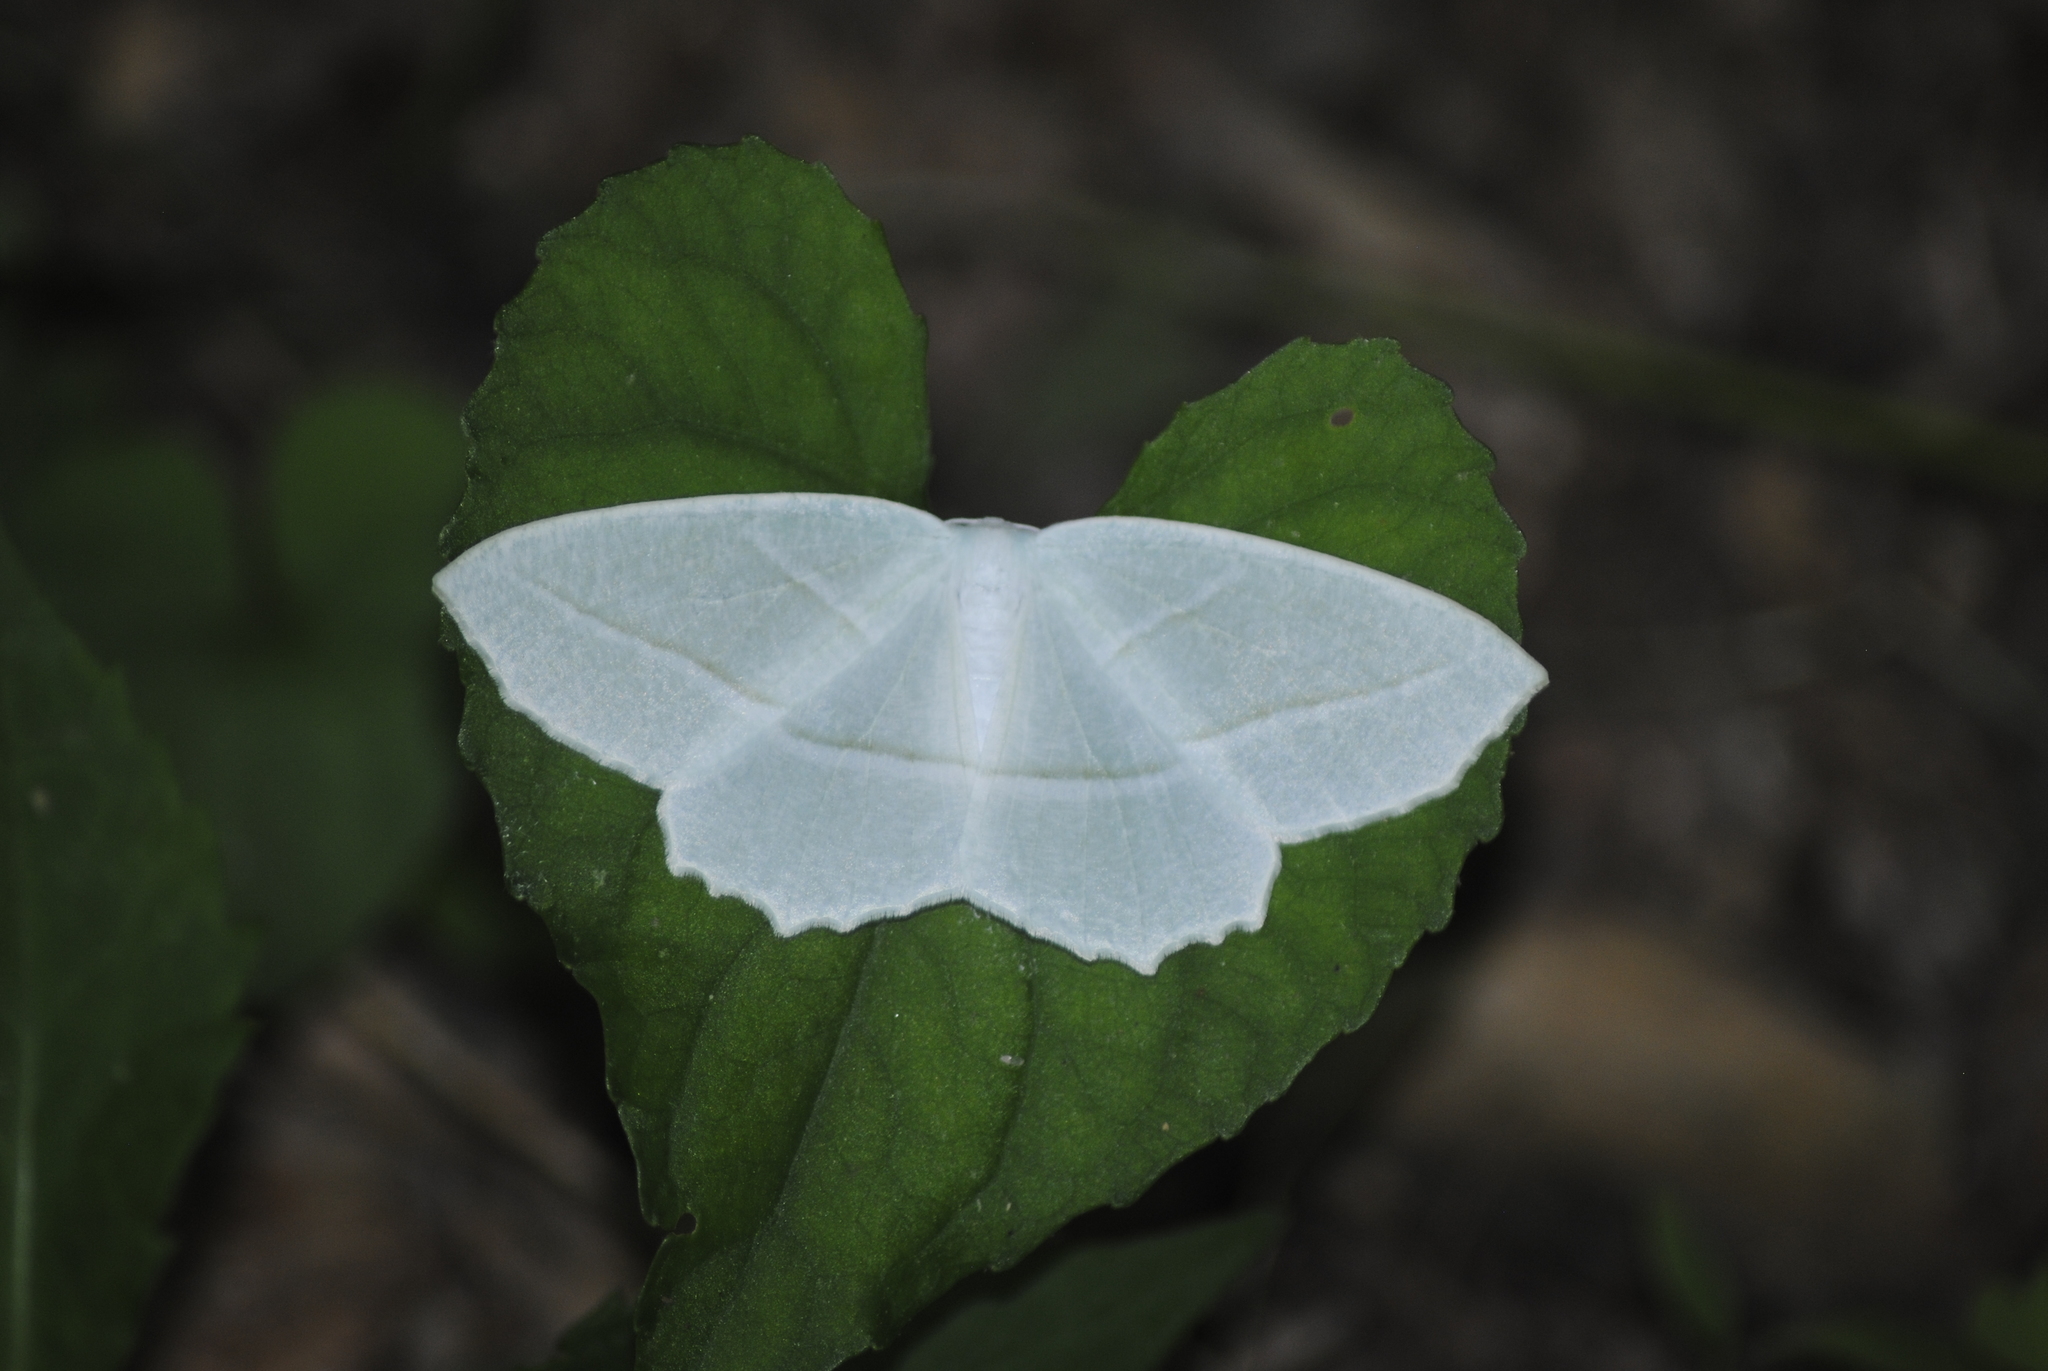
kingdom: Animalia
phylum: Arthropoda
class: Insecta
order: Lepidoptera
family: Geometridae
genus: Campaea
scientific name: Campaea perlata
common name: Fringed looper
